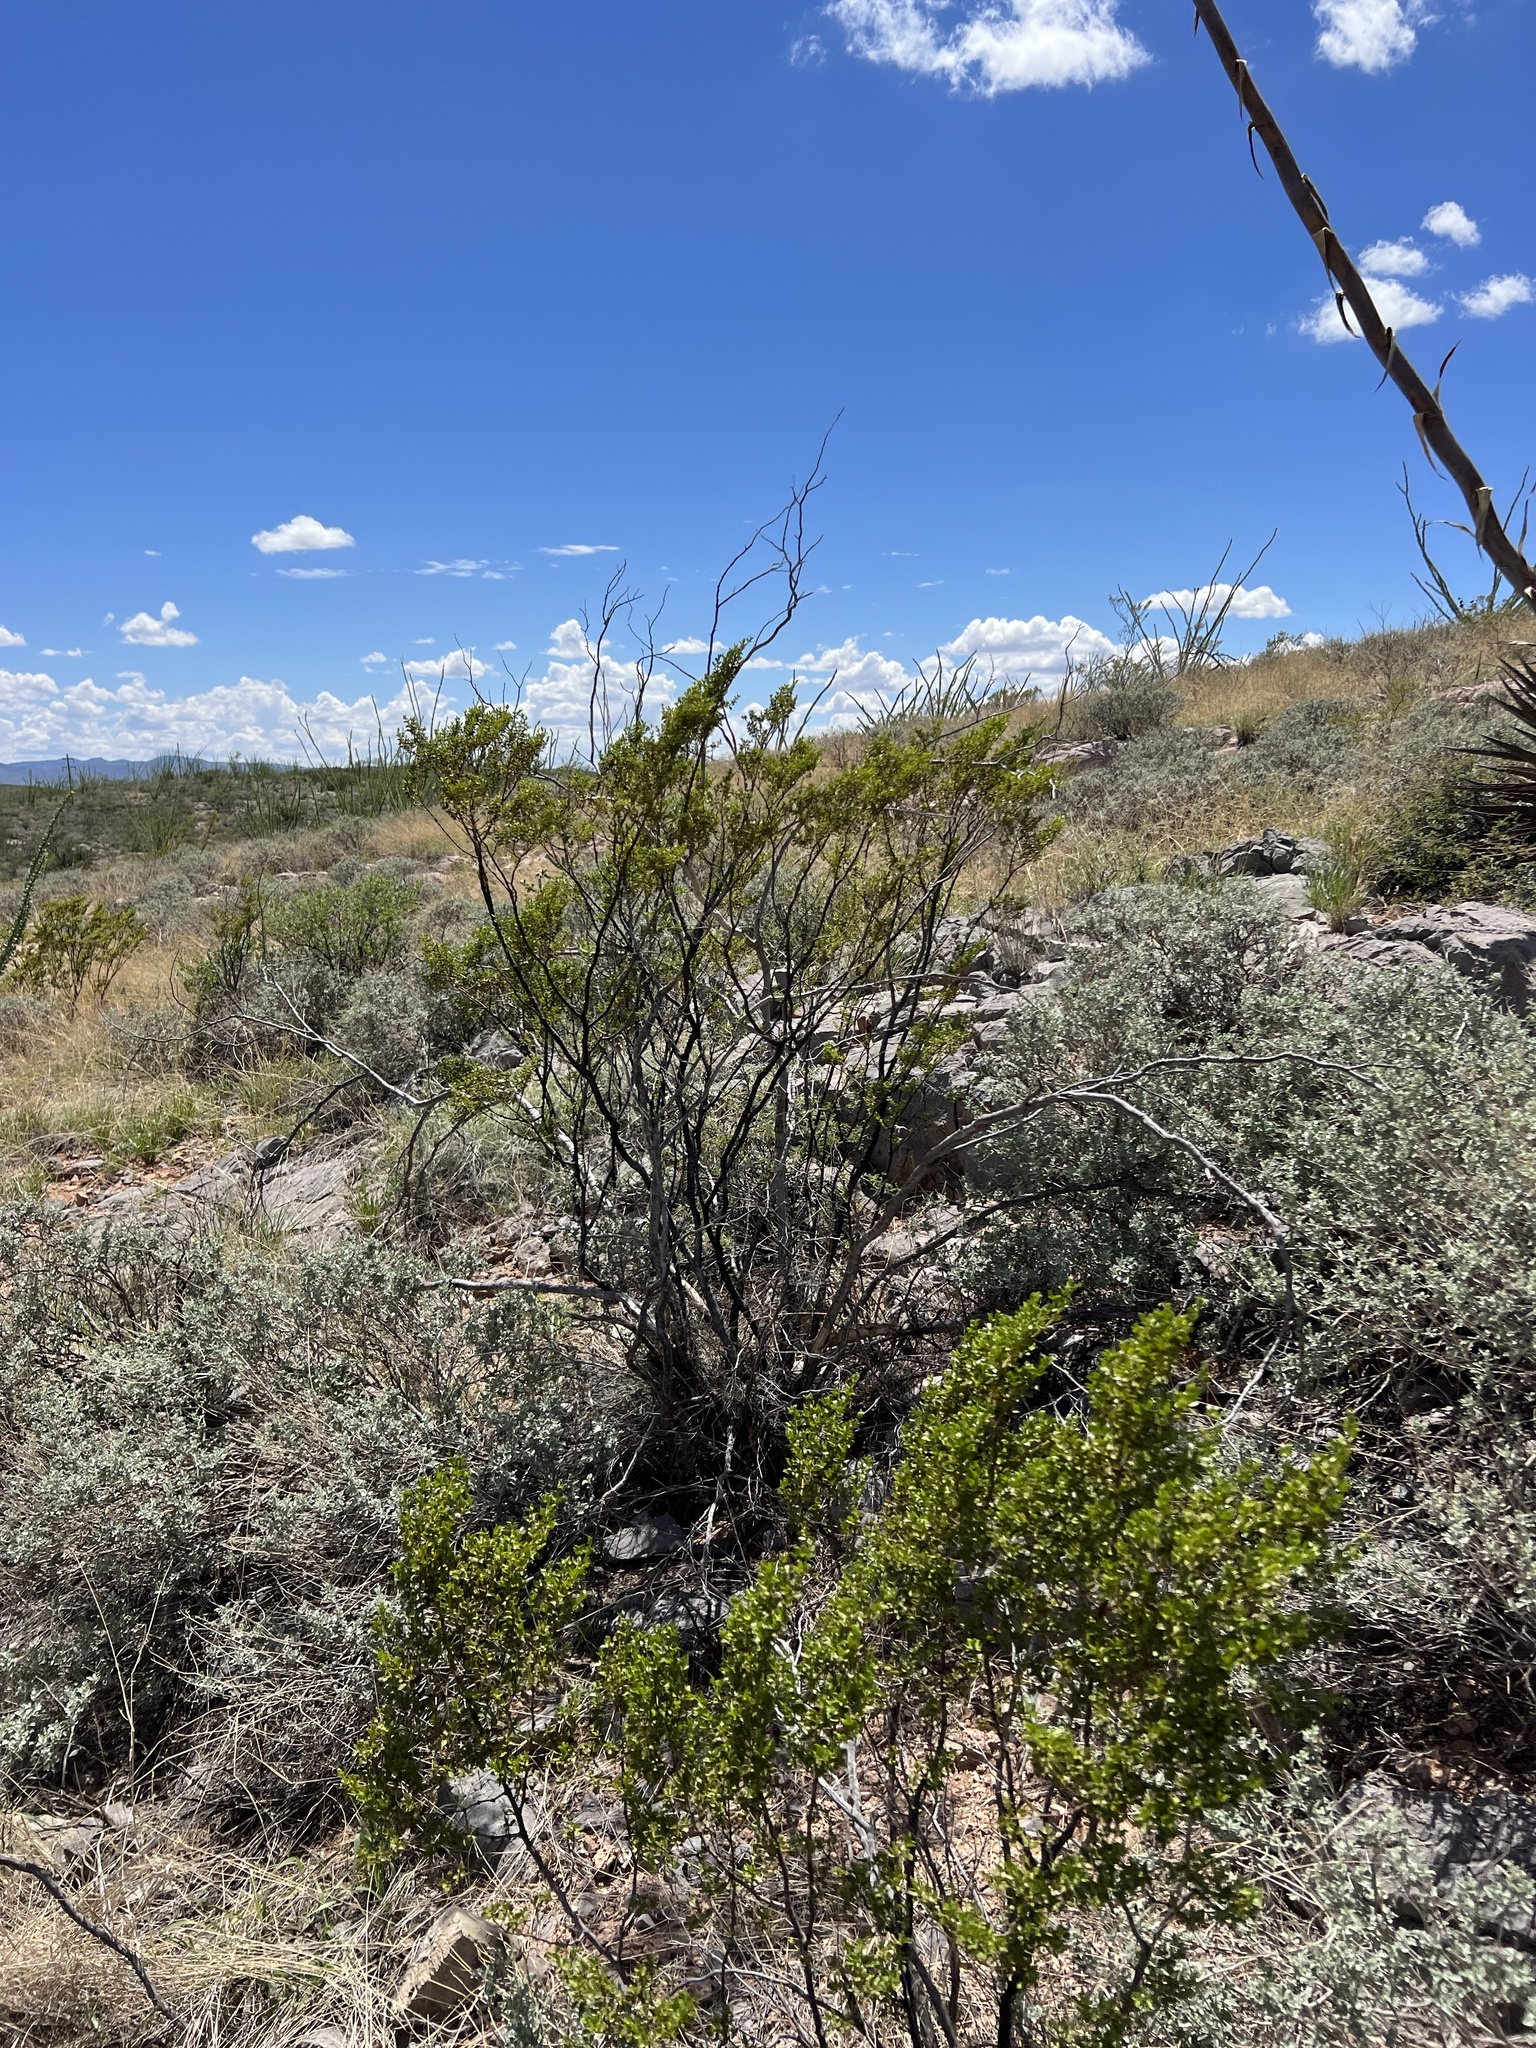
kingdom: Plantae
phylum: Tracheophyta
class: Magnoliopsida
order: Zygophyllales
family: Zygophyllaceae
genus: Larrea
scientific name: Larrea tridentata
